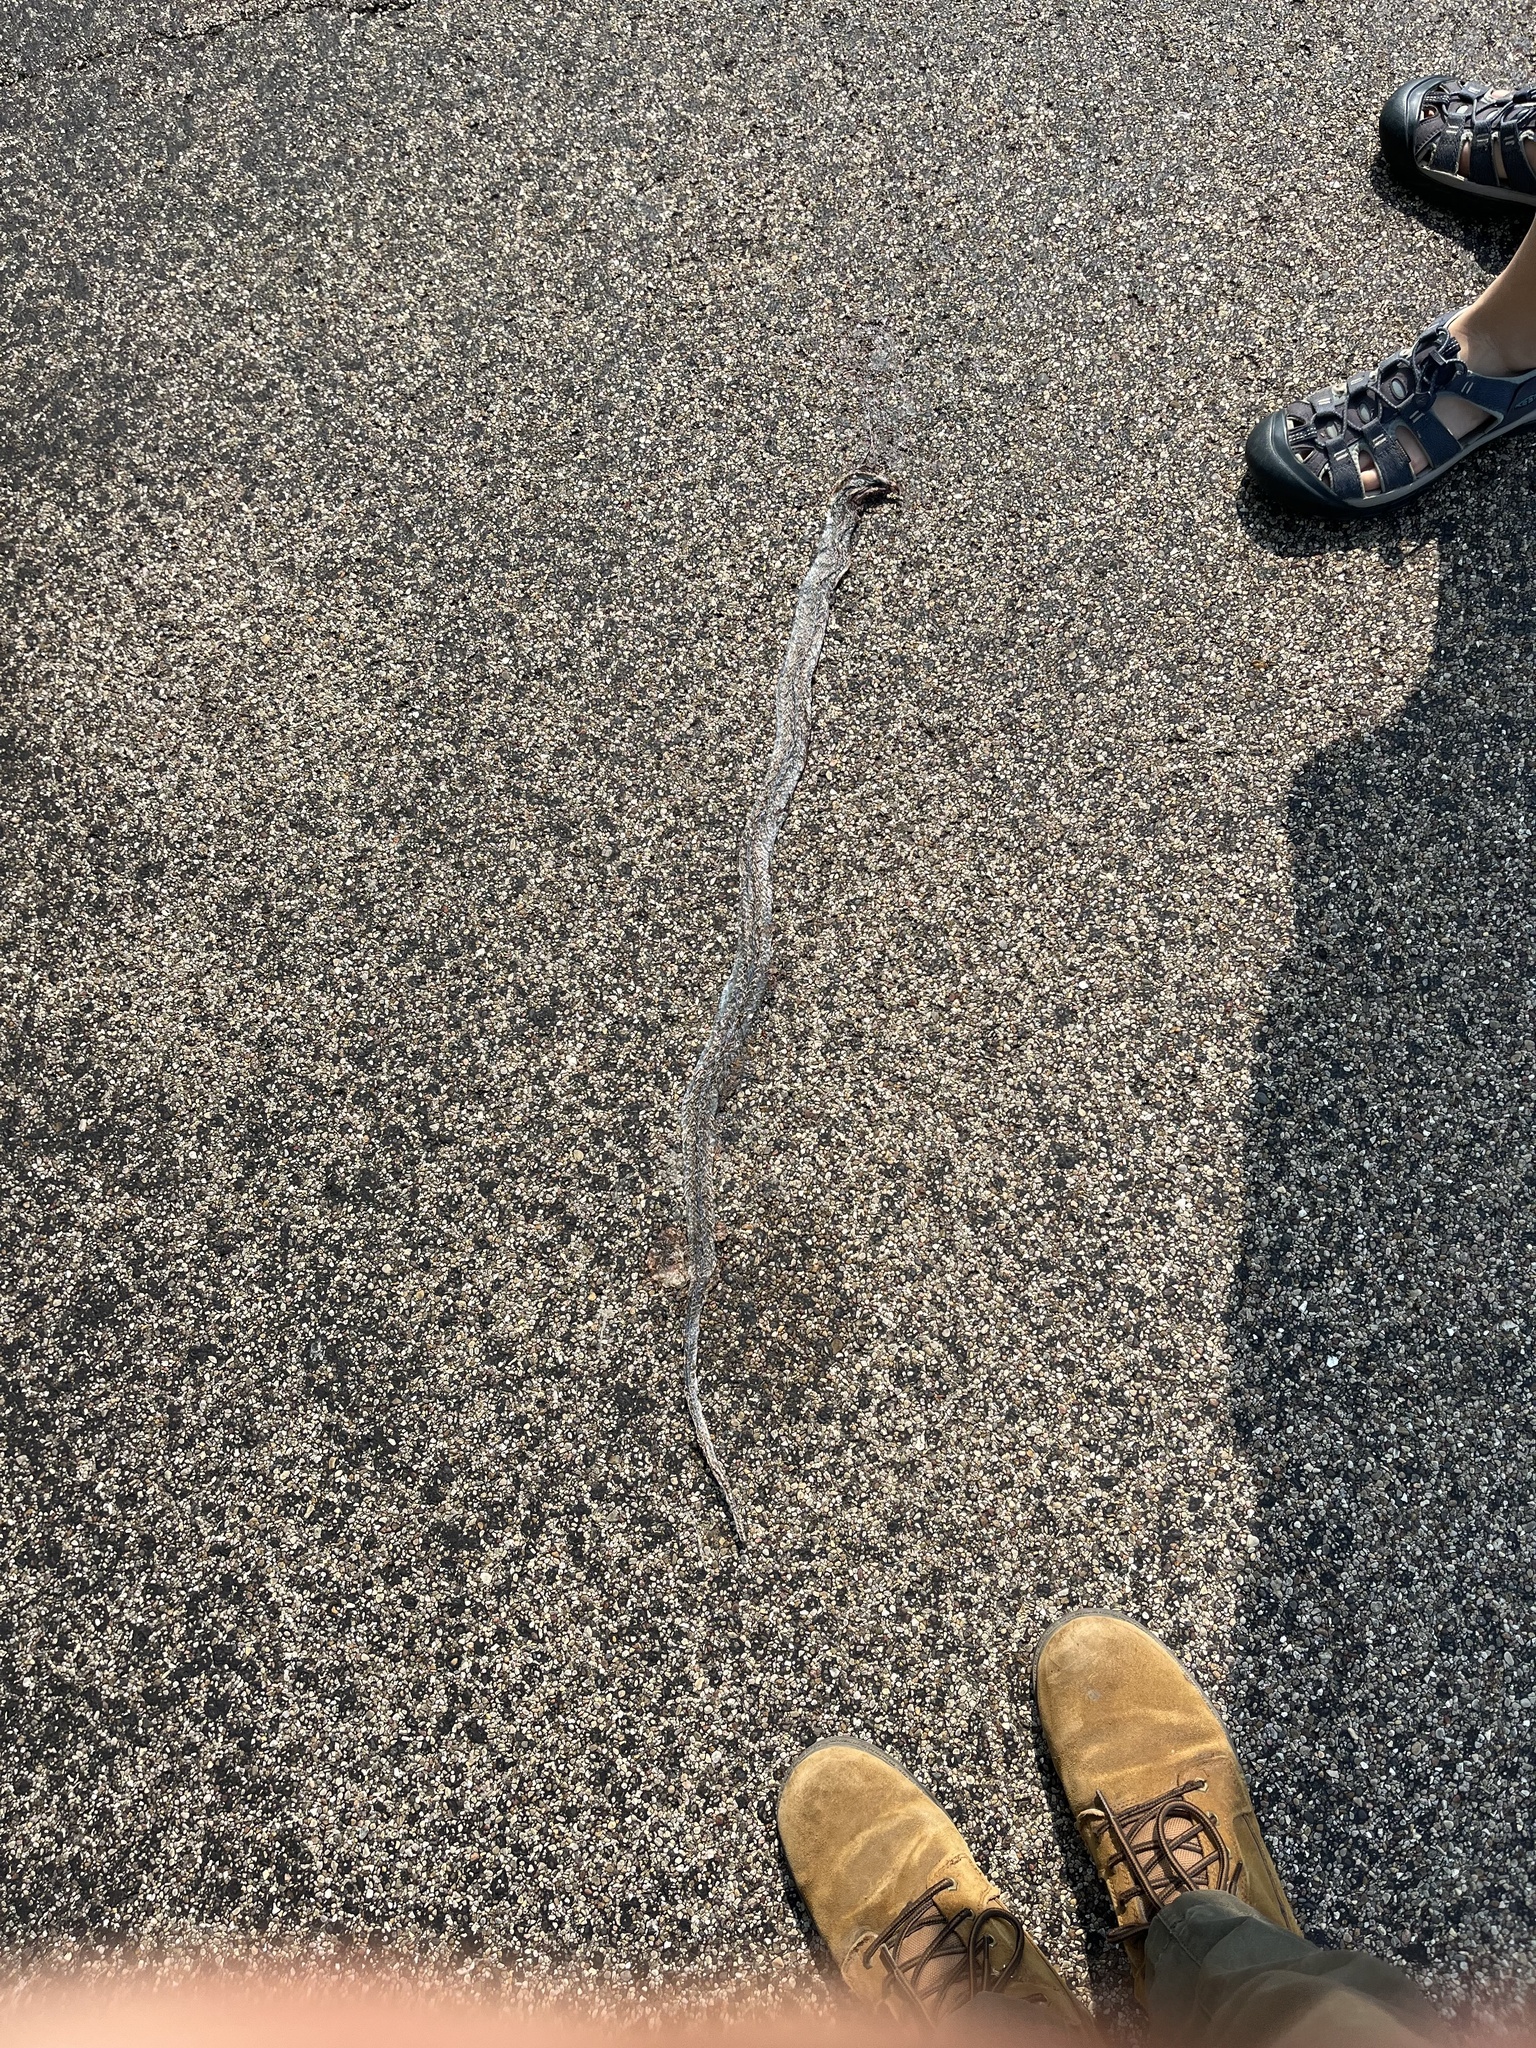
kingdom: Animalia
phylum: Chordata
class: Squamata
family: Colubridae
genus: Coluber
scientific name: Coluber constrictor
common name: Eastern racer
